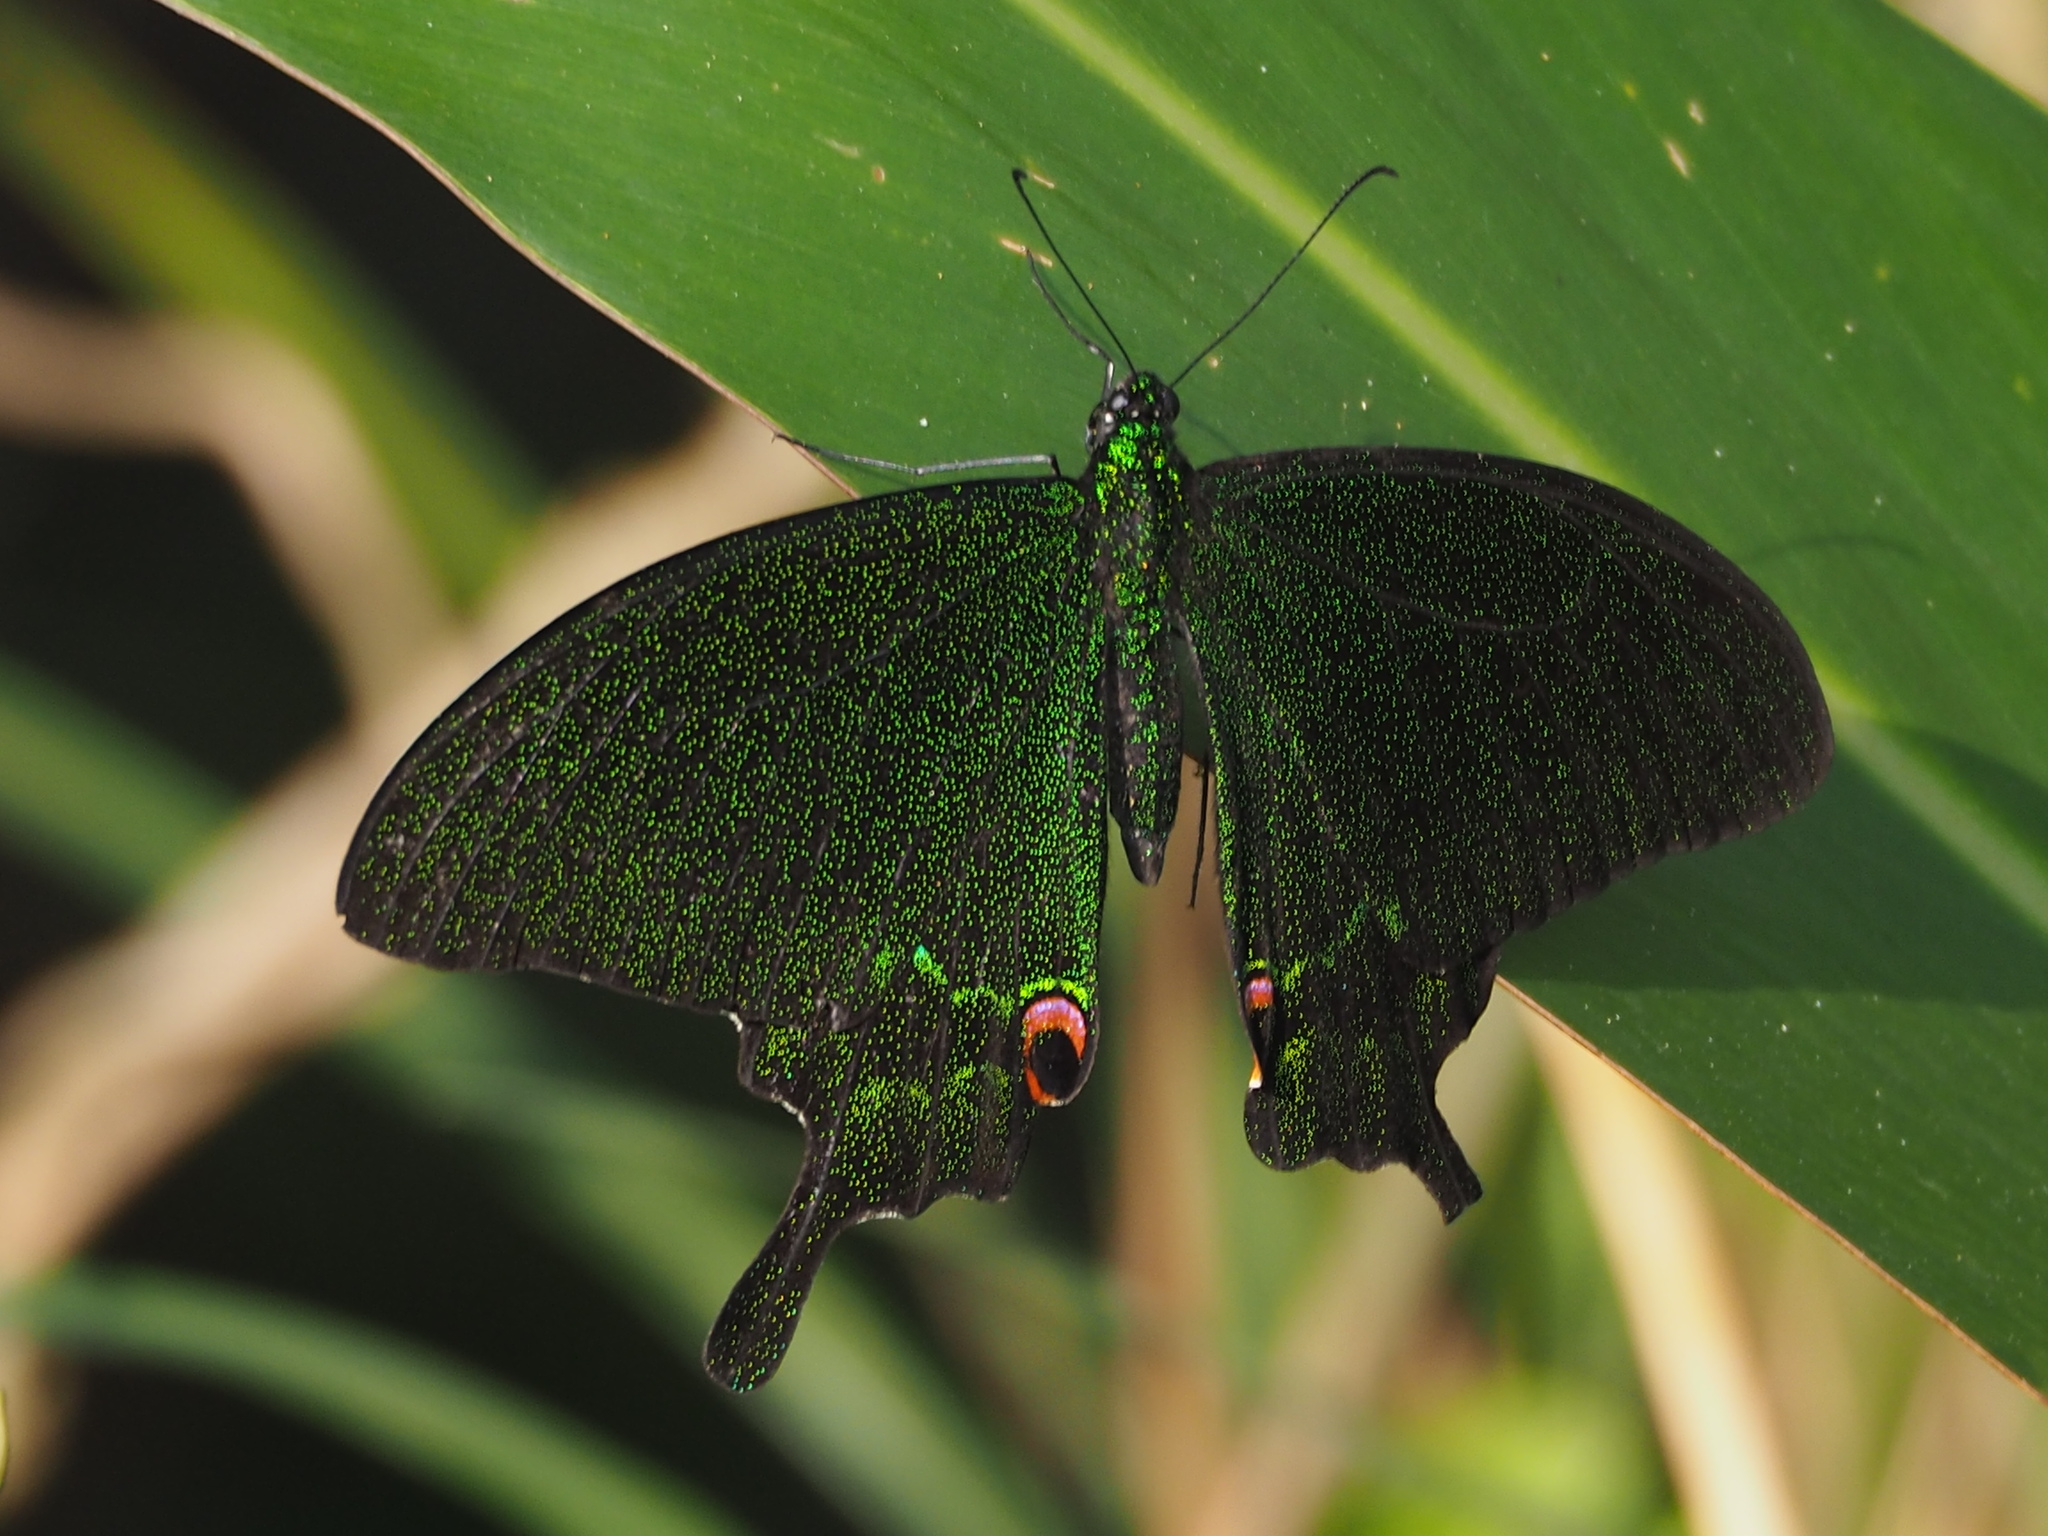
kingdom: Animalia
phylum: Arthropoda
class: Insecta
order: Lepidoptera
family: Papilionidae
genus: Papilio
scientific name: Papilio paris
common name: Paris peacock
